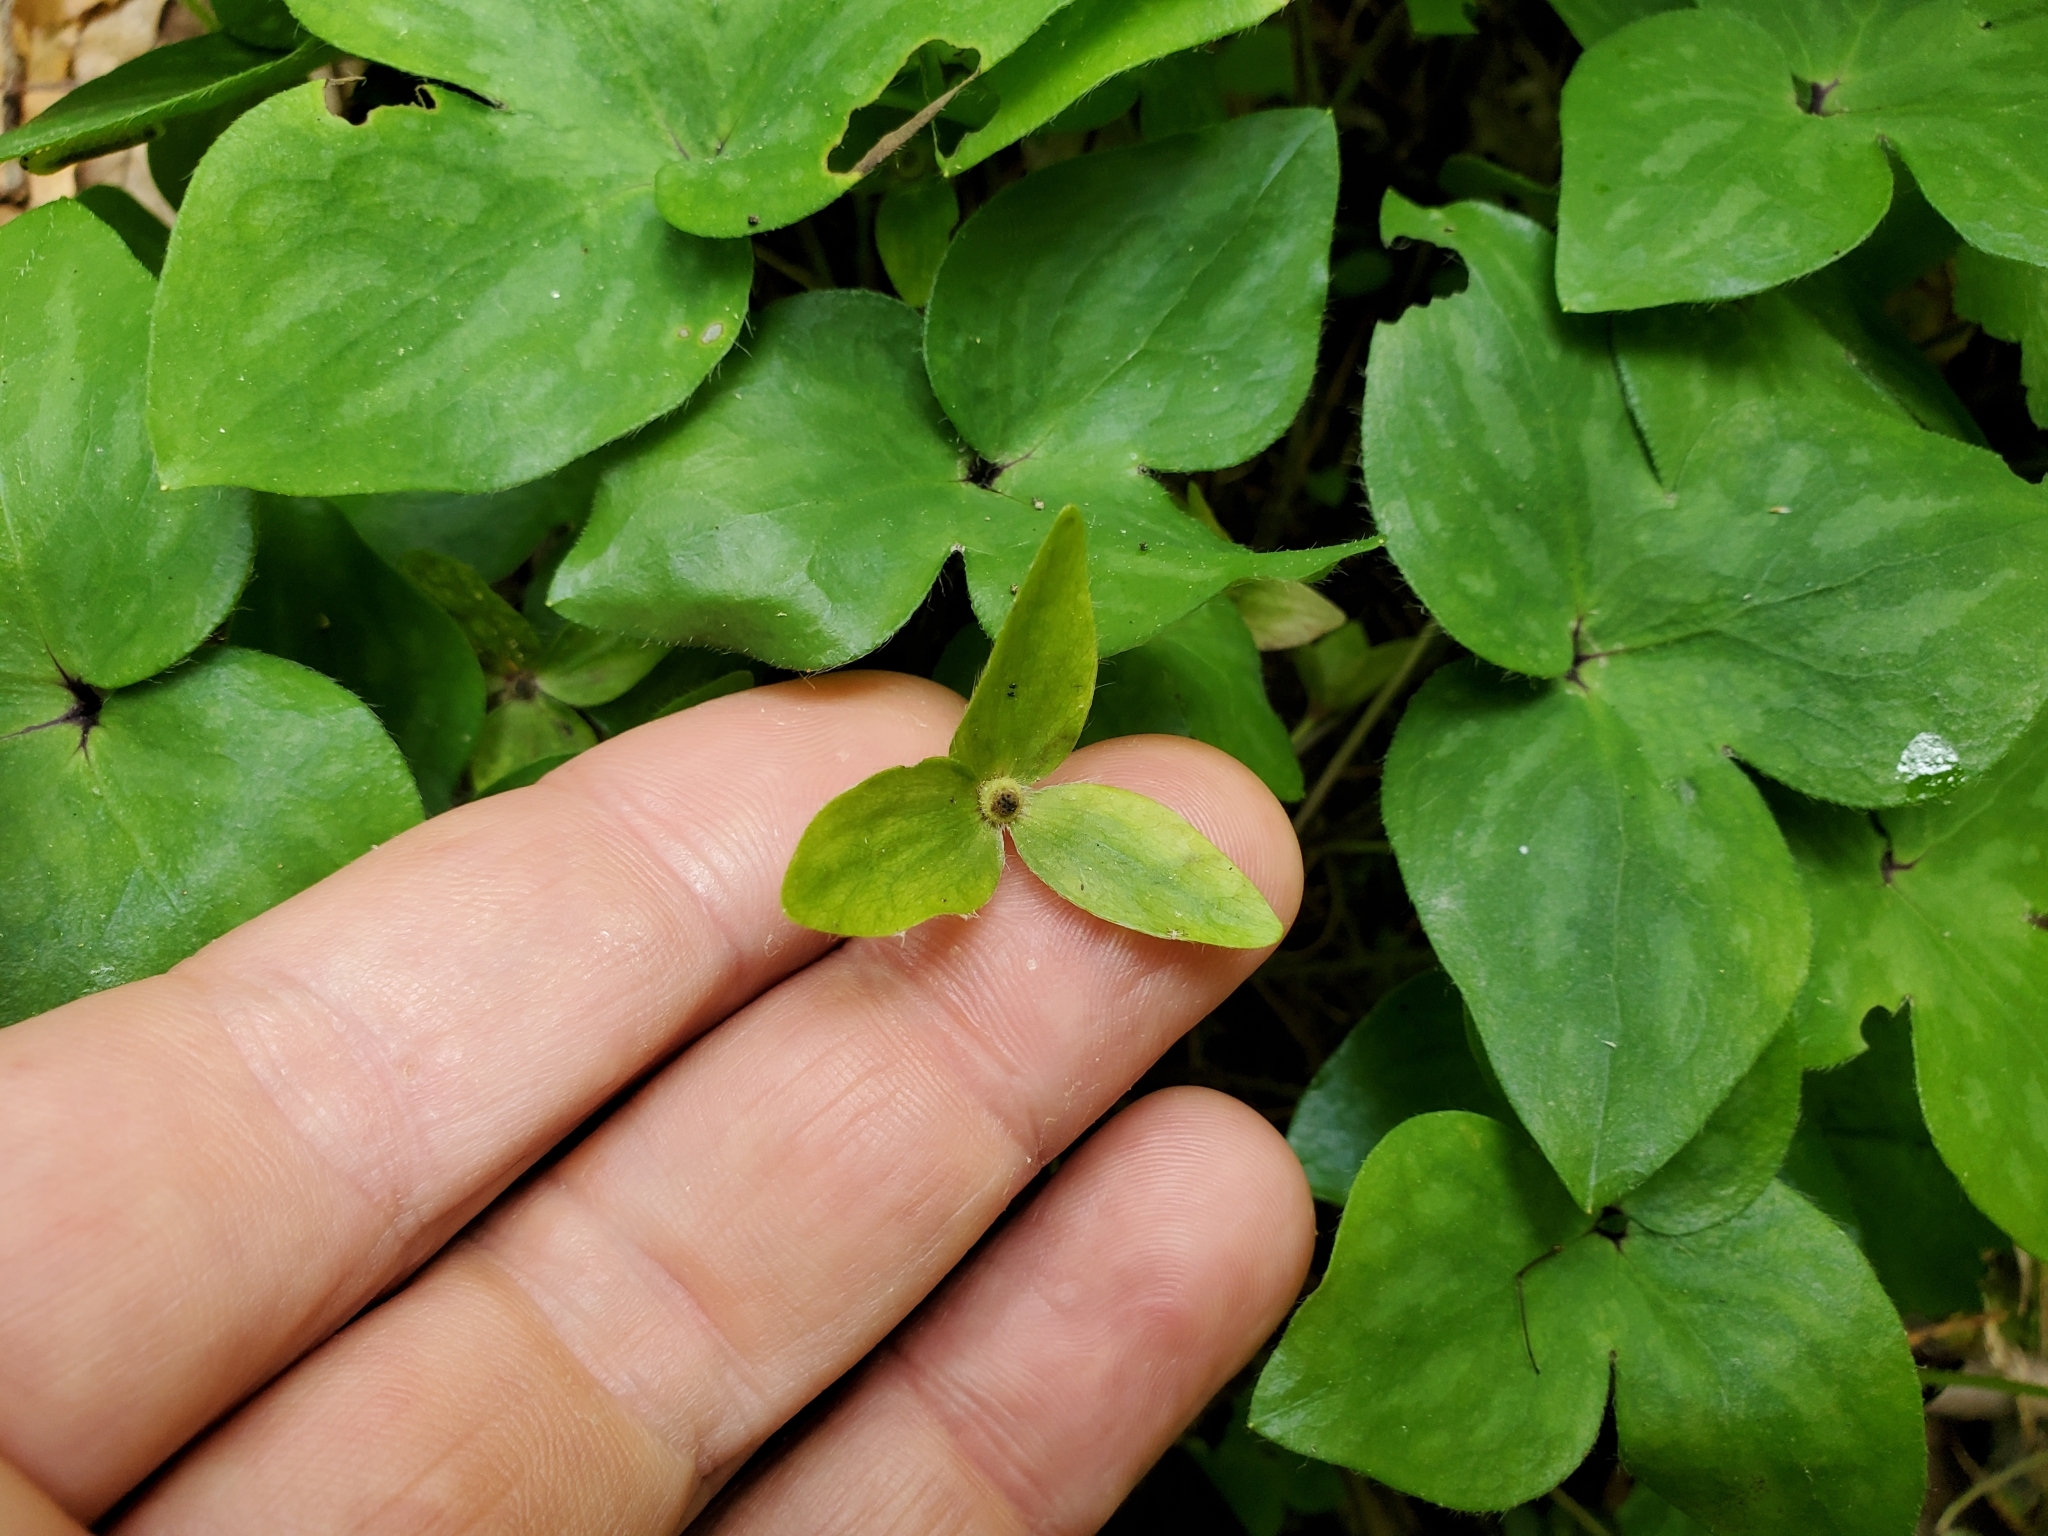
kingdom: Plantae
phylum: Tracheophyta
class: Magnoliopsida
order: Ranunculales
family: Ranunculaceae
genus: Hepatica
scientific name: Hepatica acutiloba
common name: Sharp-lobed hepatica
